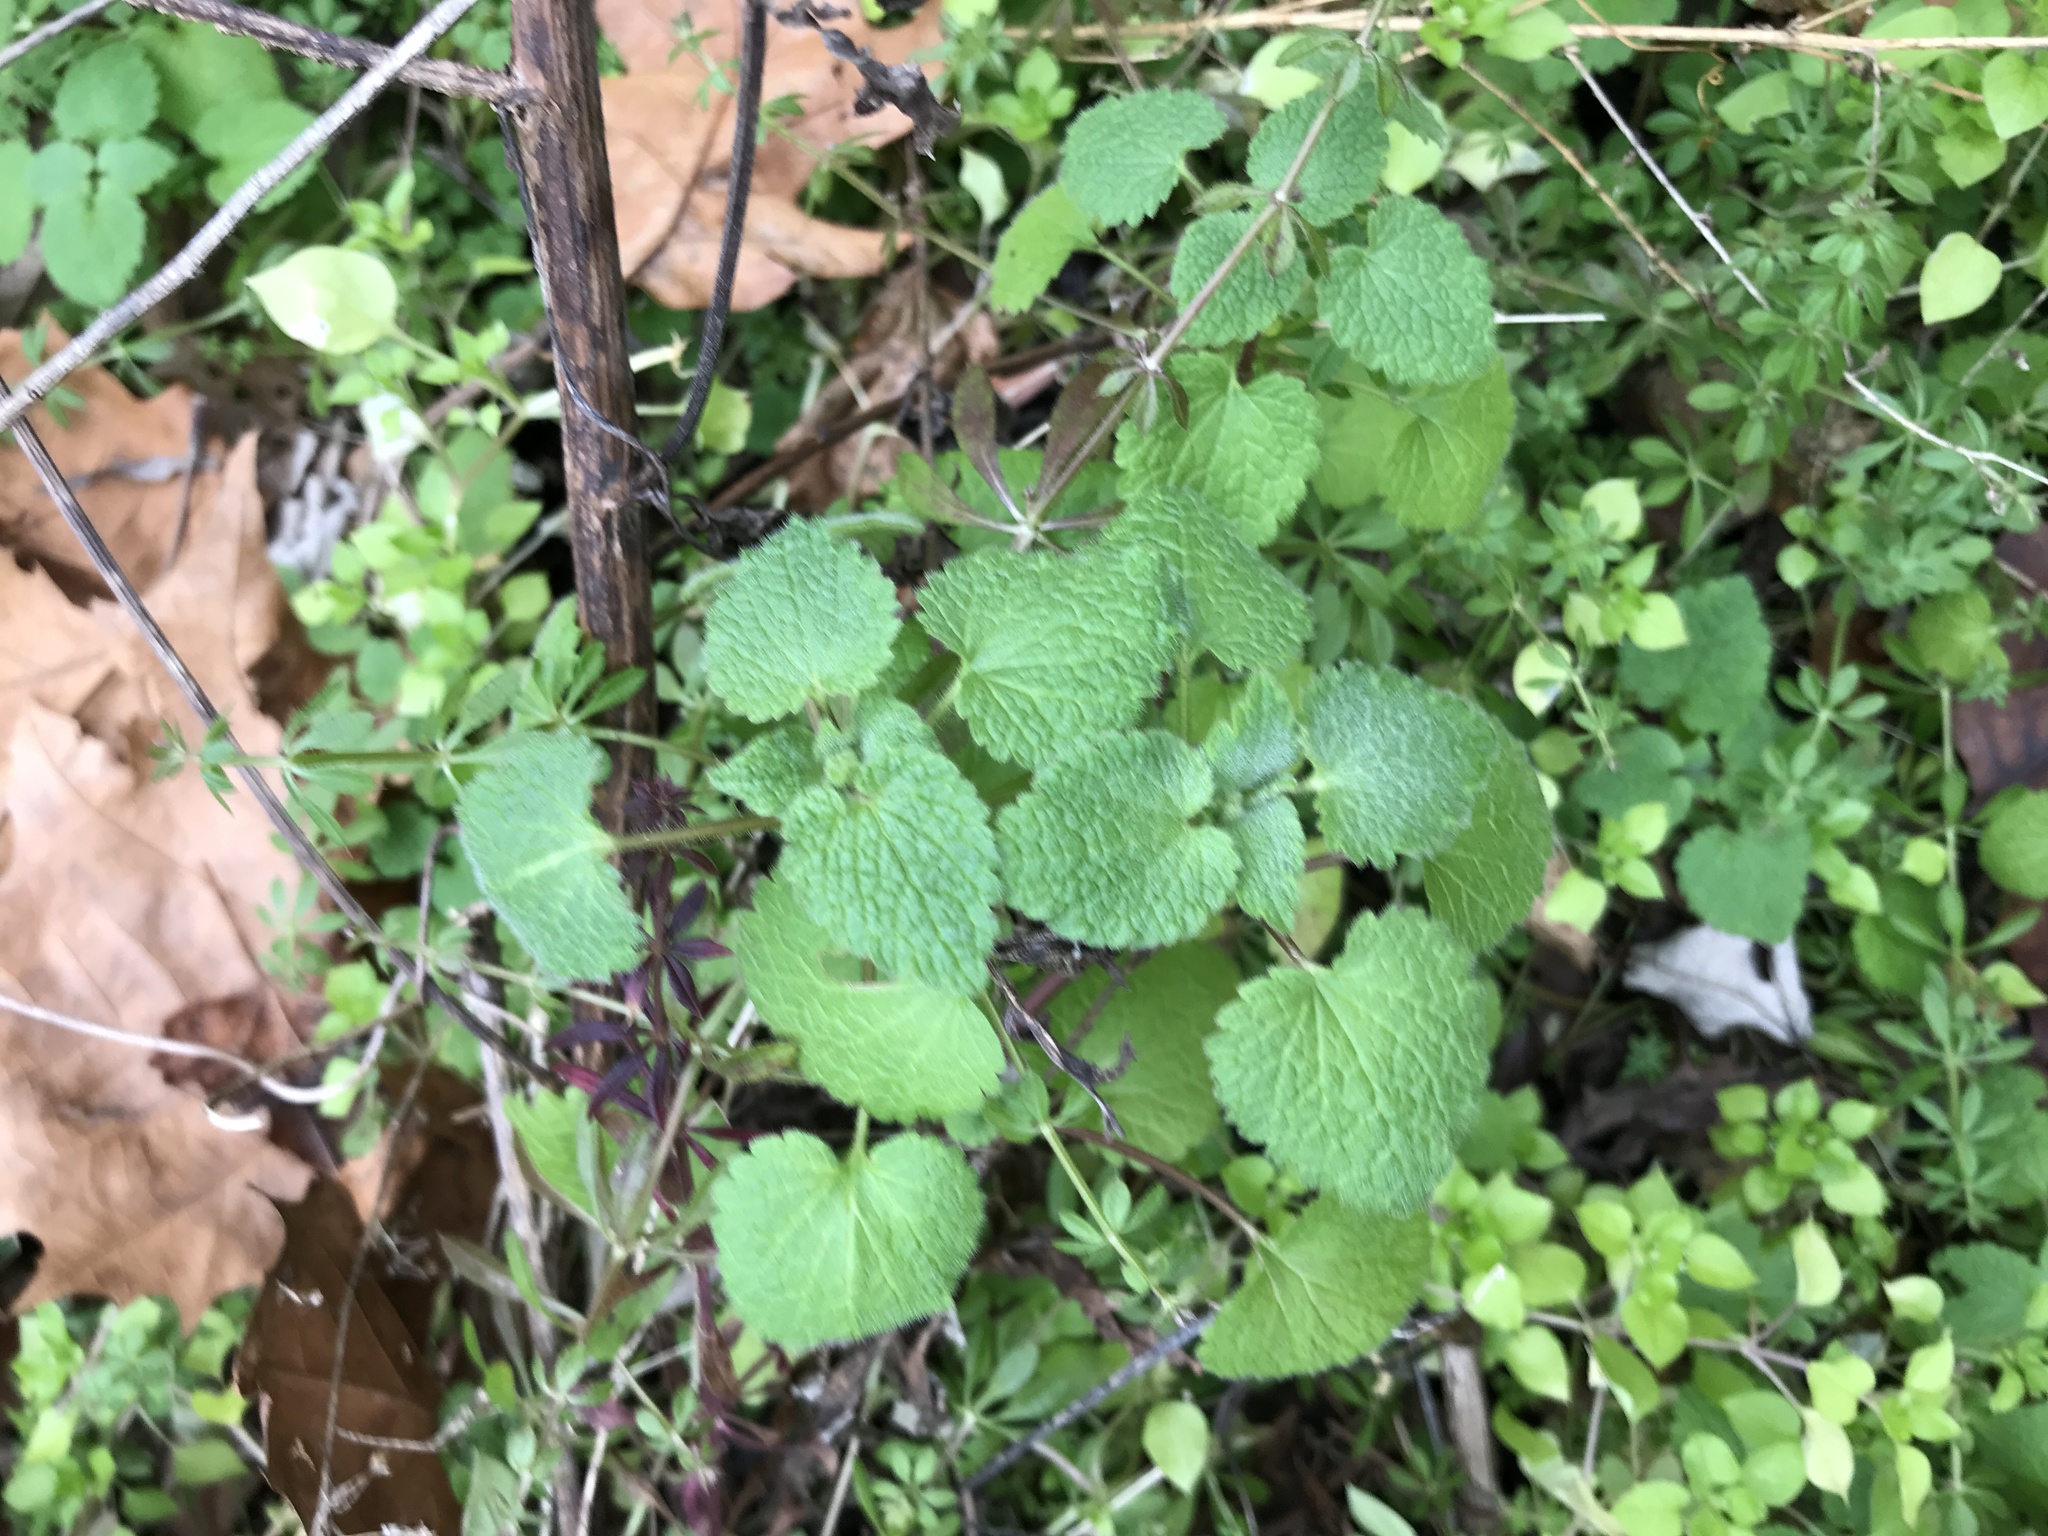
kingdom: Plantae
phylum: Tracheophyta
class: Magnoliopsida
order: Lamiales
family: Lamiaceae
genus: Lamium
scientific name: Lamium purpureum
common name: Red dead-nettle
